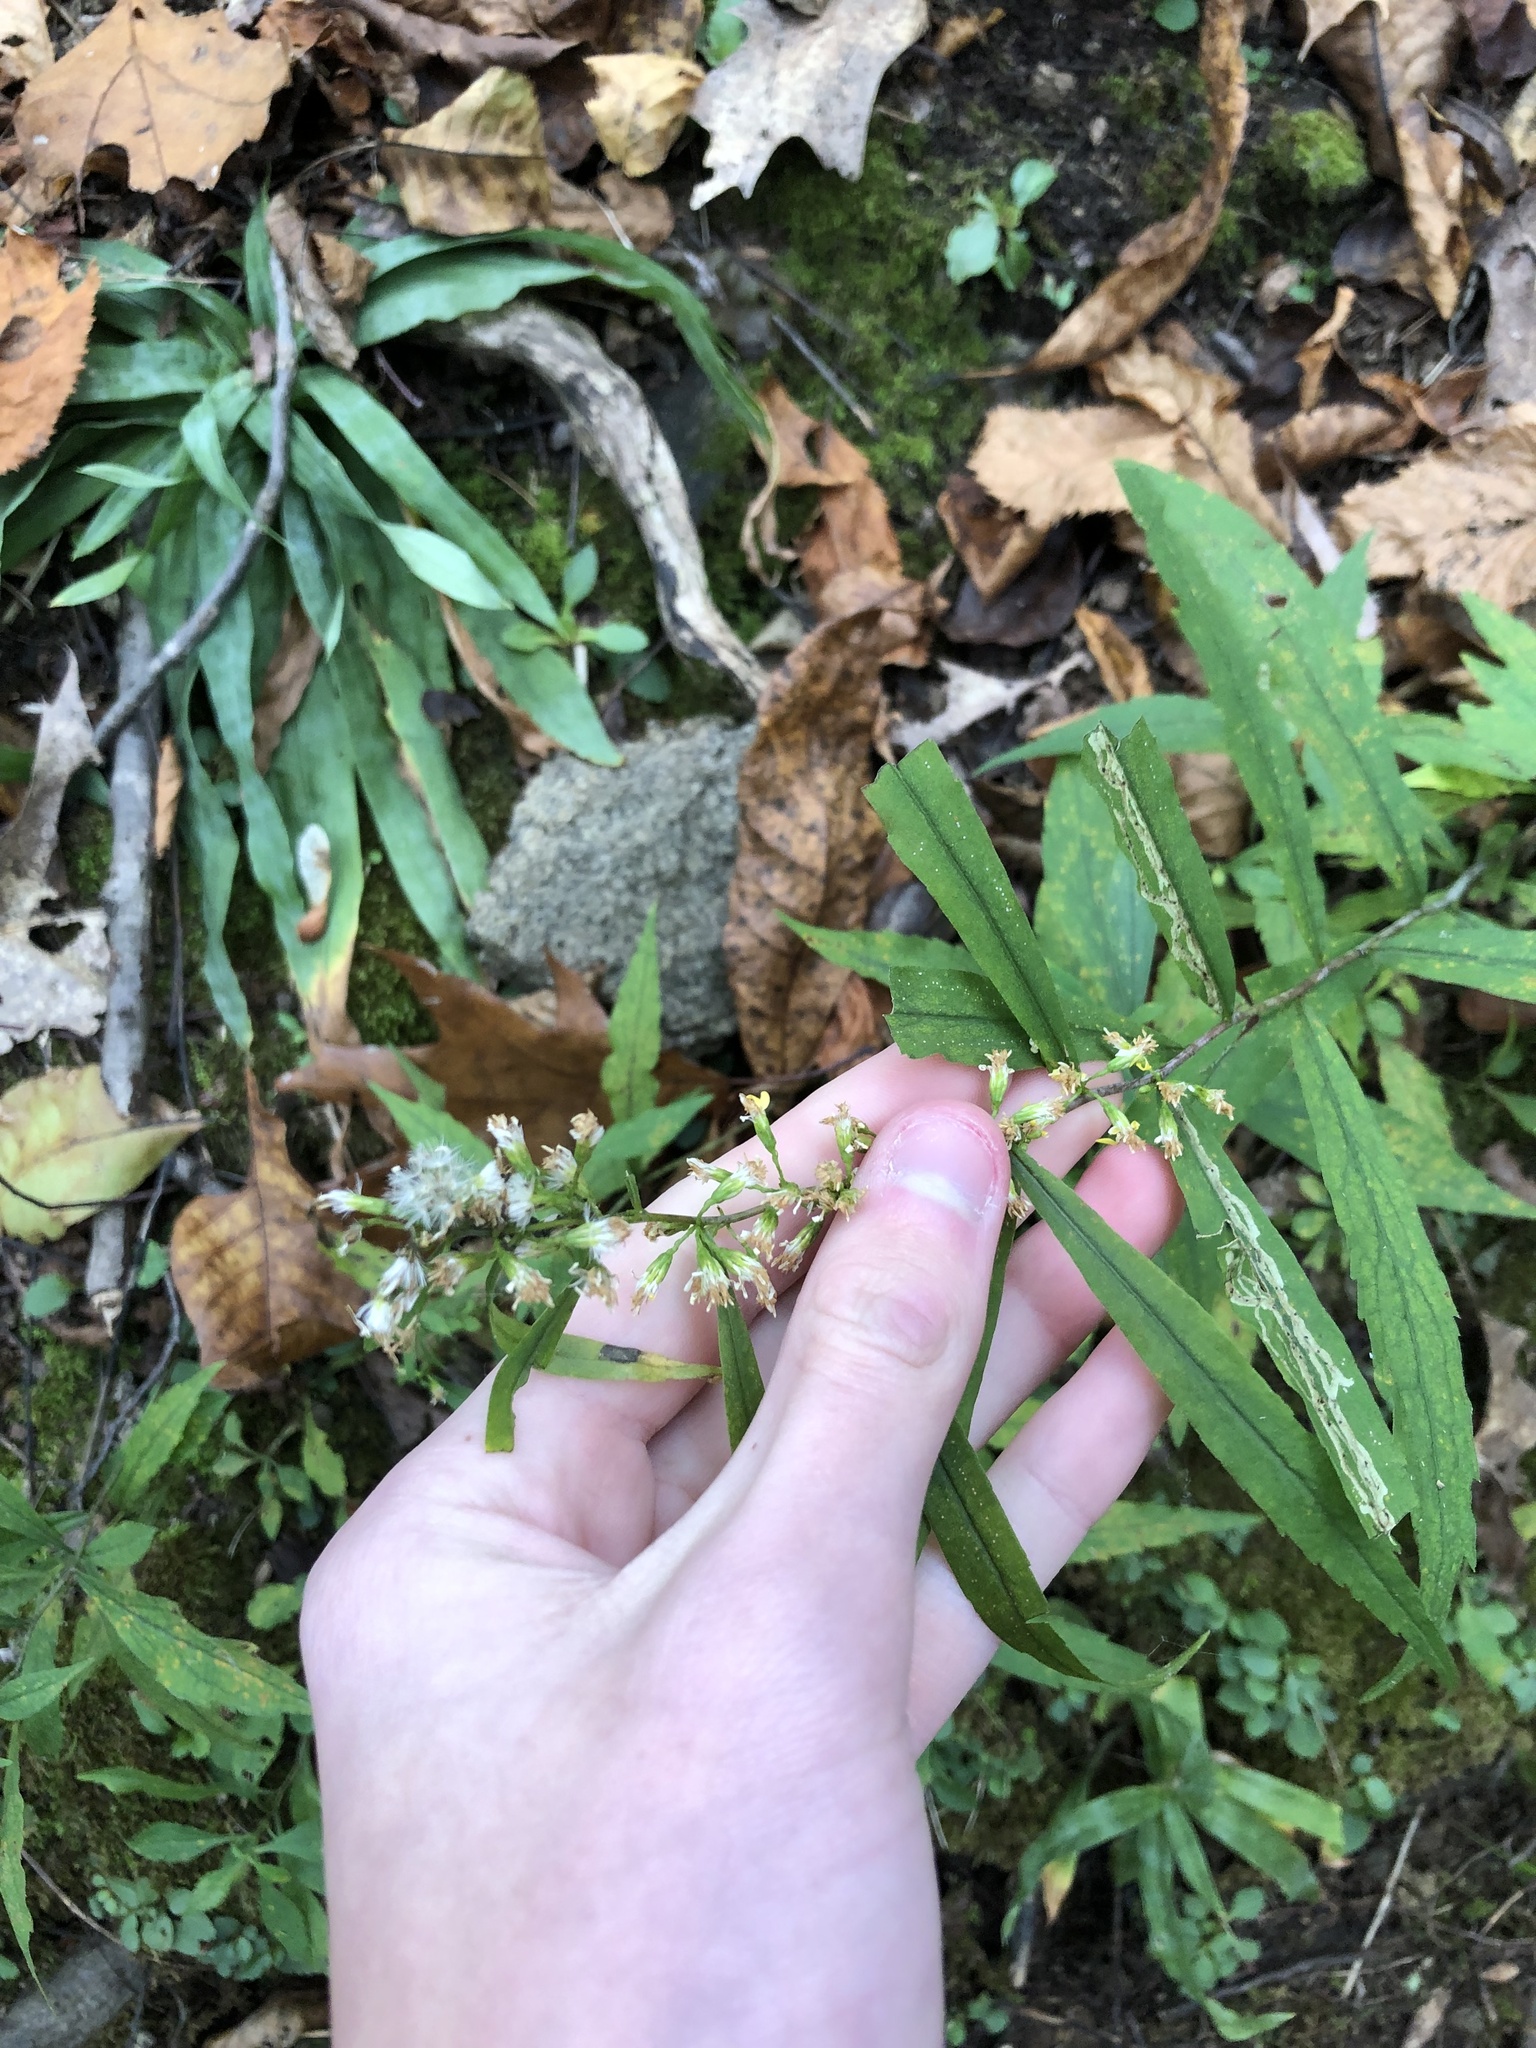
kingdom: Plantae
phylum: Tracheophyta
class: Magnoliopsida
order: Asterales
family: Asteraceae
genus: Solidago
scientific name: Solidago caesia
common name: Woodland goldenrod
